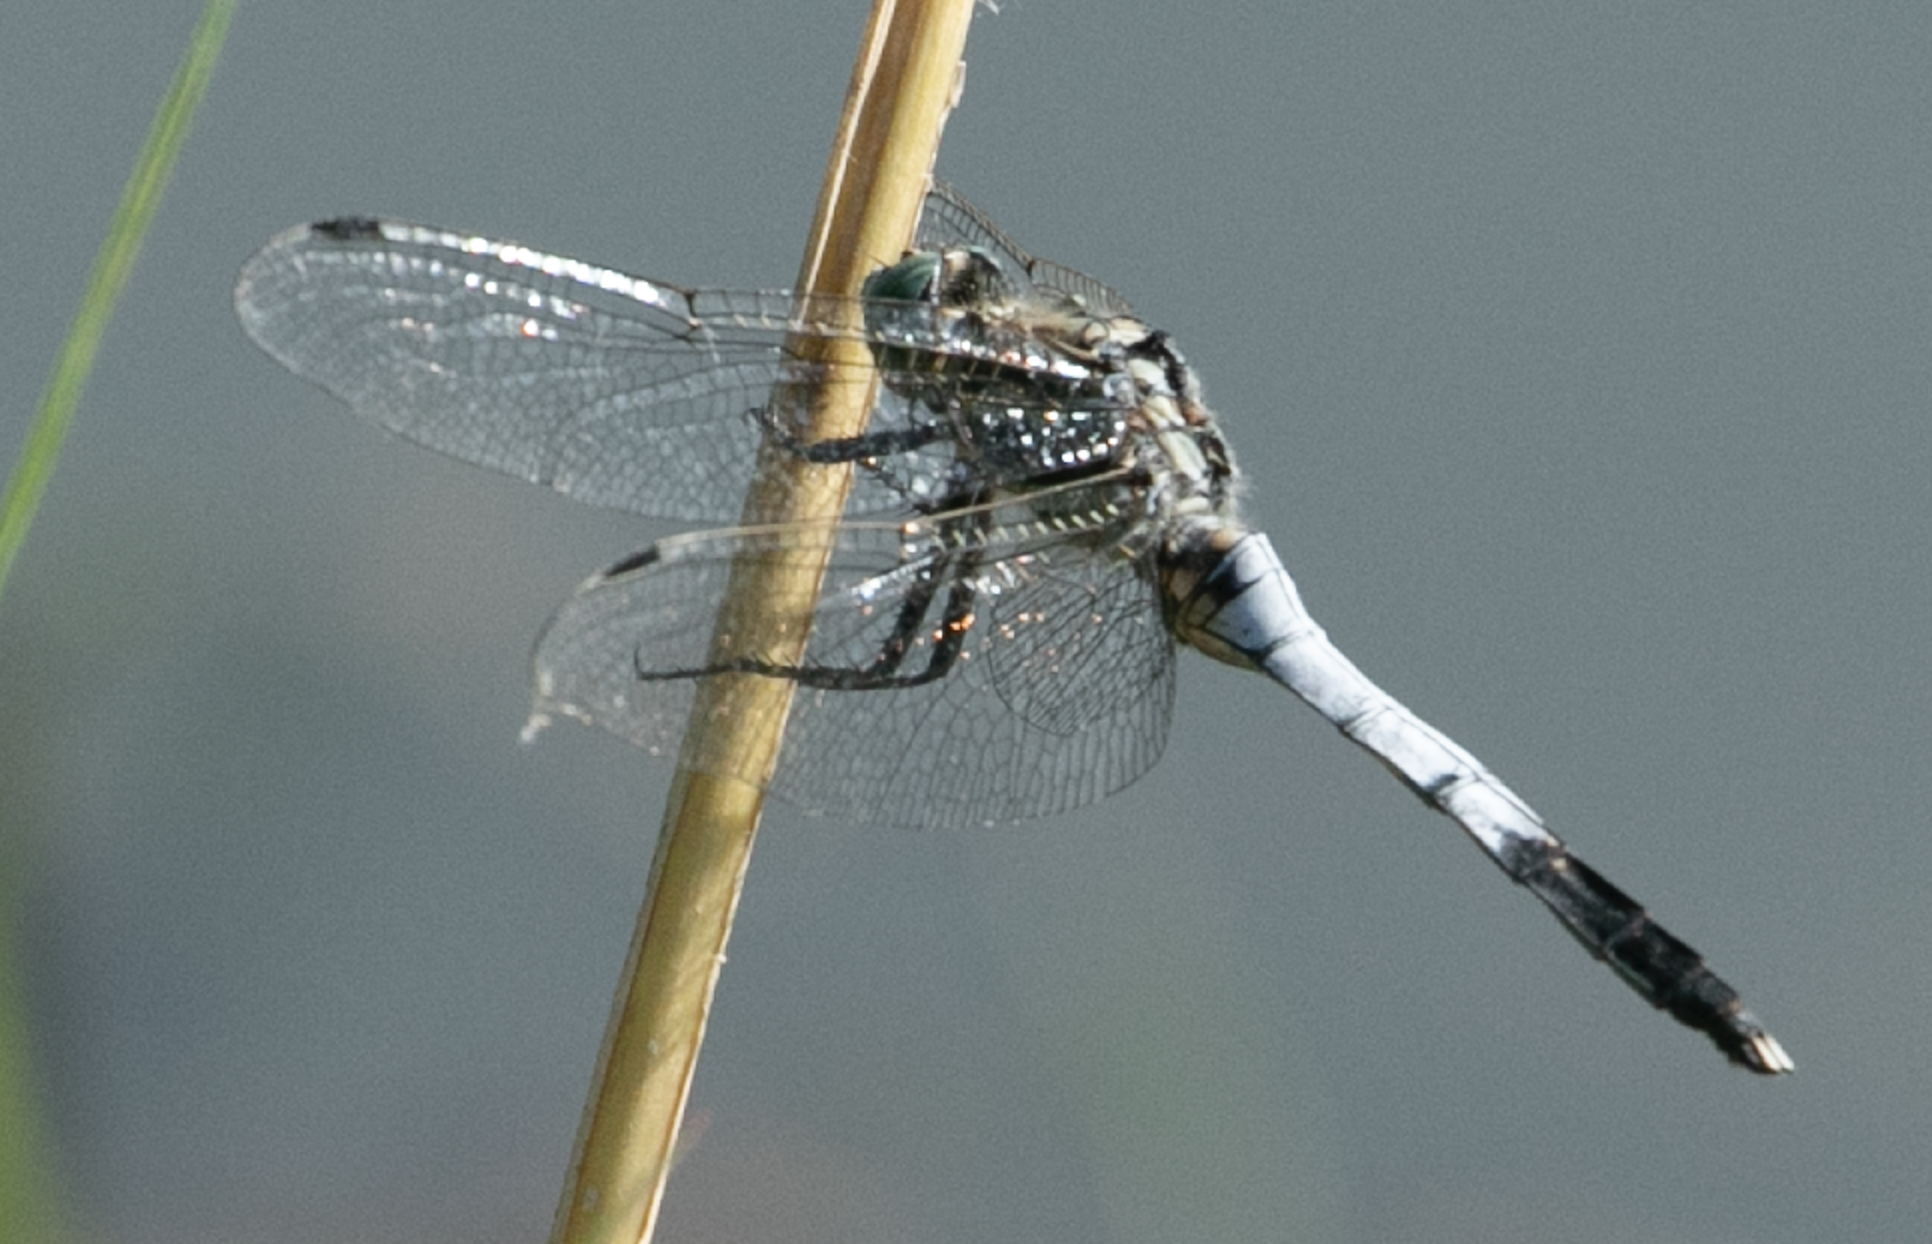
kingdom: Animalia
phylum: Arthropoda
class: Insecta
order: Odonata
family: Libellulidae
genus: Orthetrum
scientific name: Orthetrum albistylum
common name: White-tailed skimmer
